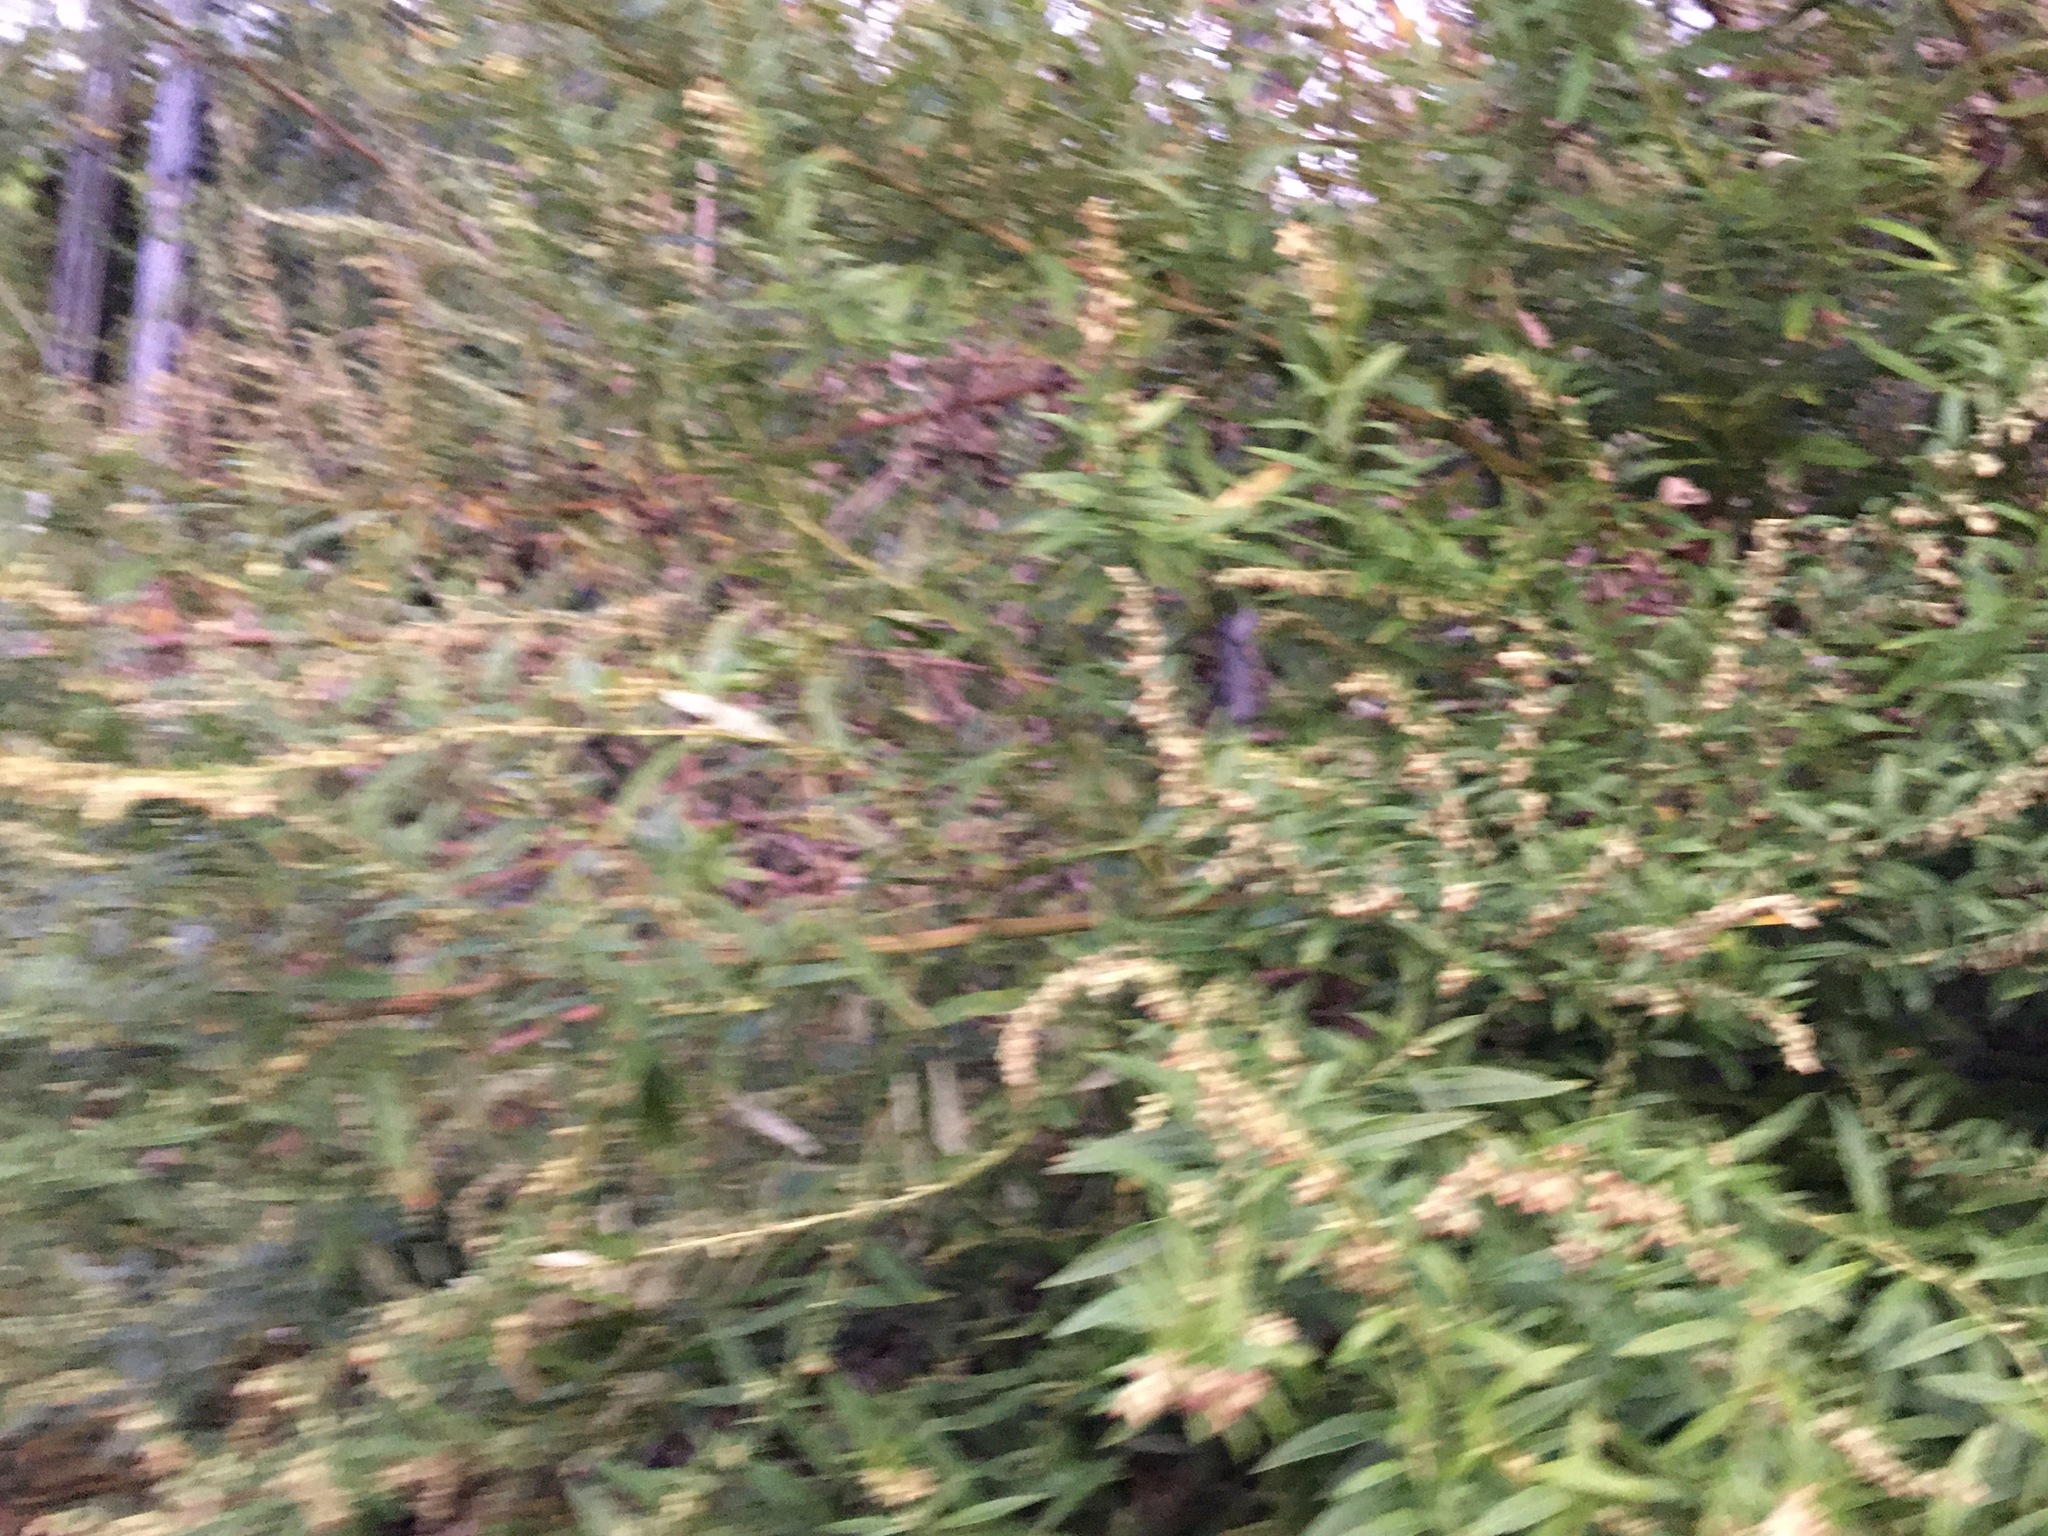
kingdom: Plantae
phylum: Tracheophyta
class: Magnoliopsida
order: Asterales
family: Asteraceae
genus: Artemisia
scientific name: Artemisia vulgaris
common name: Mugwort
